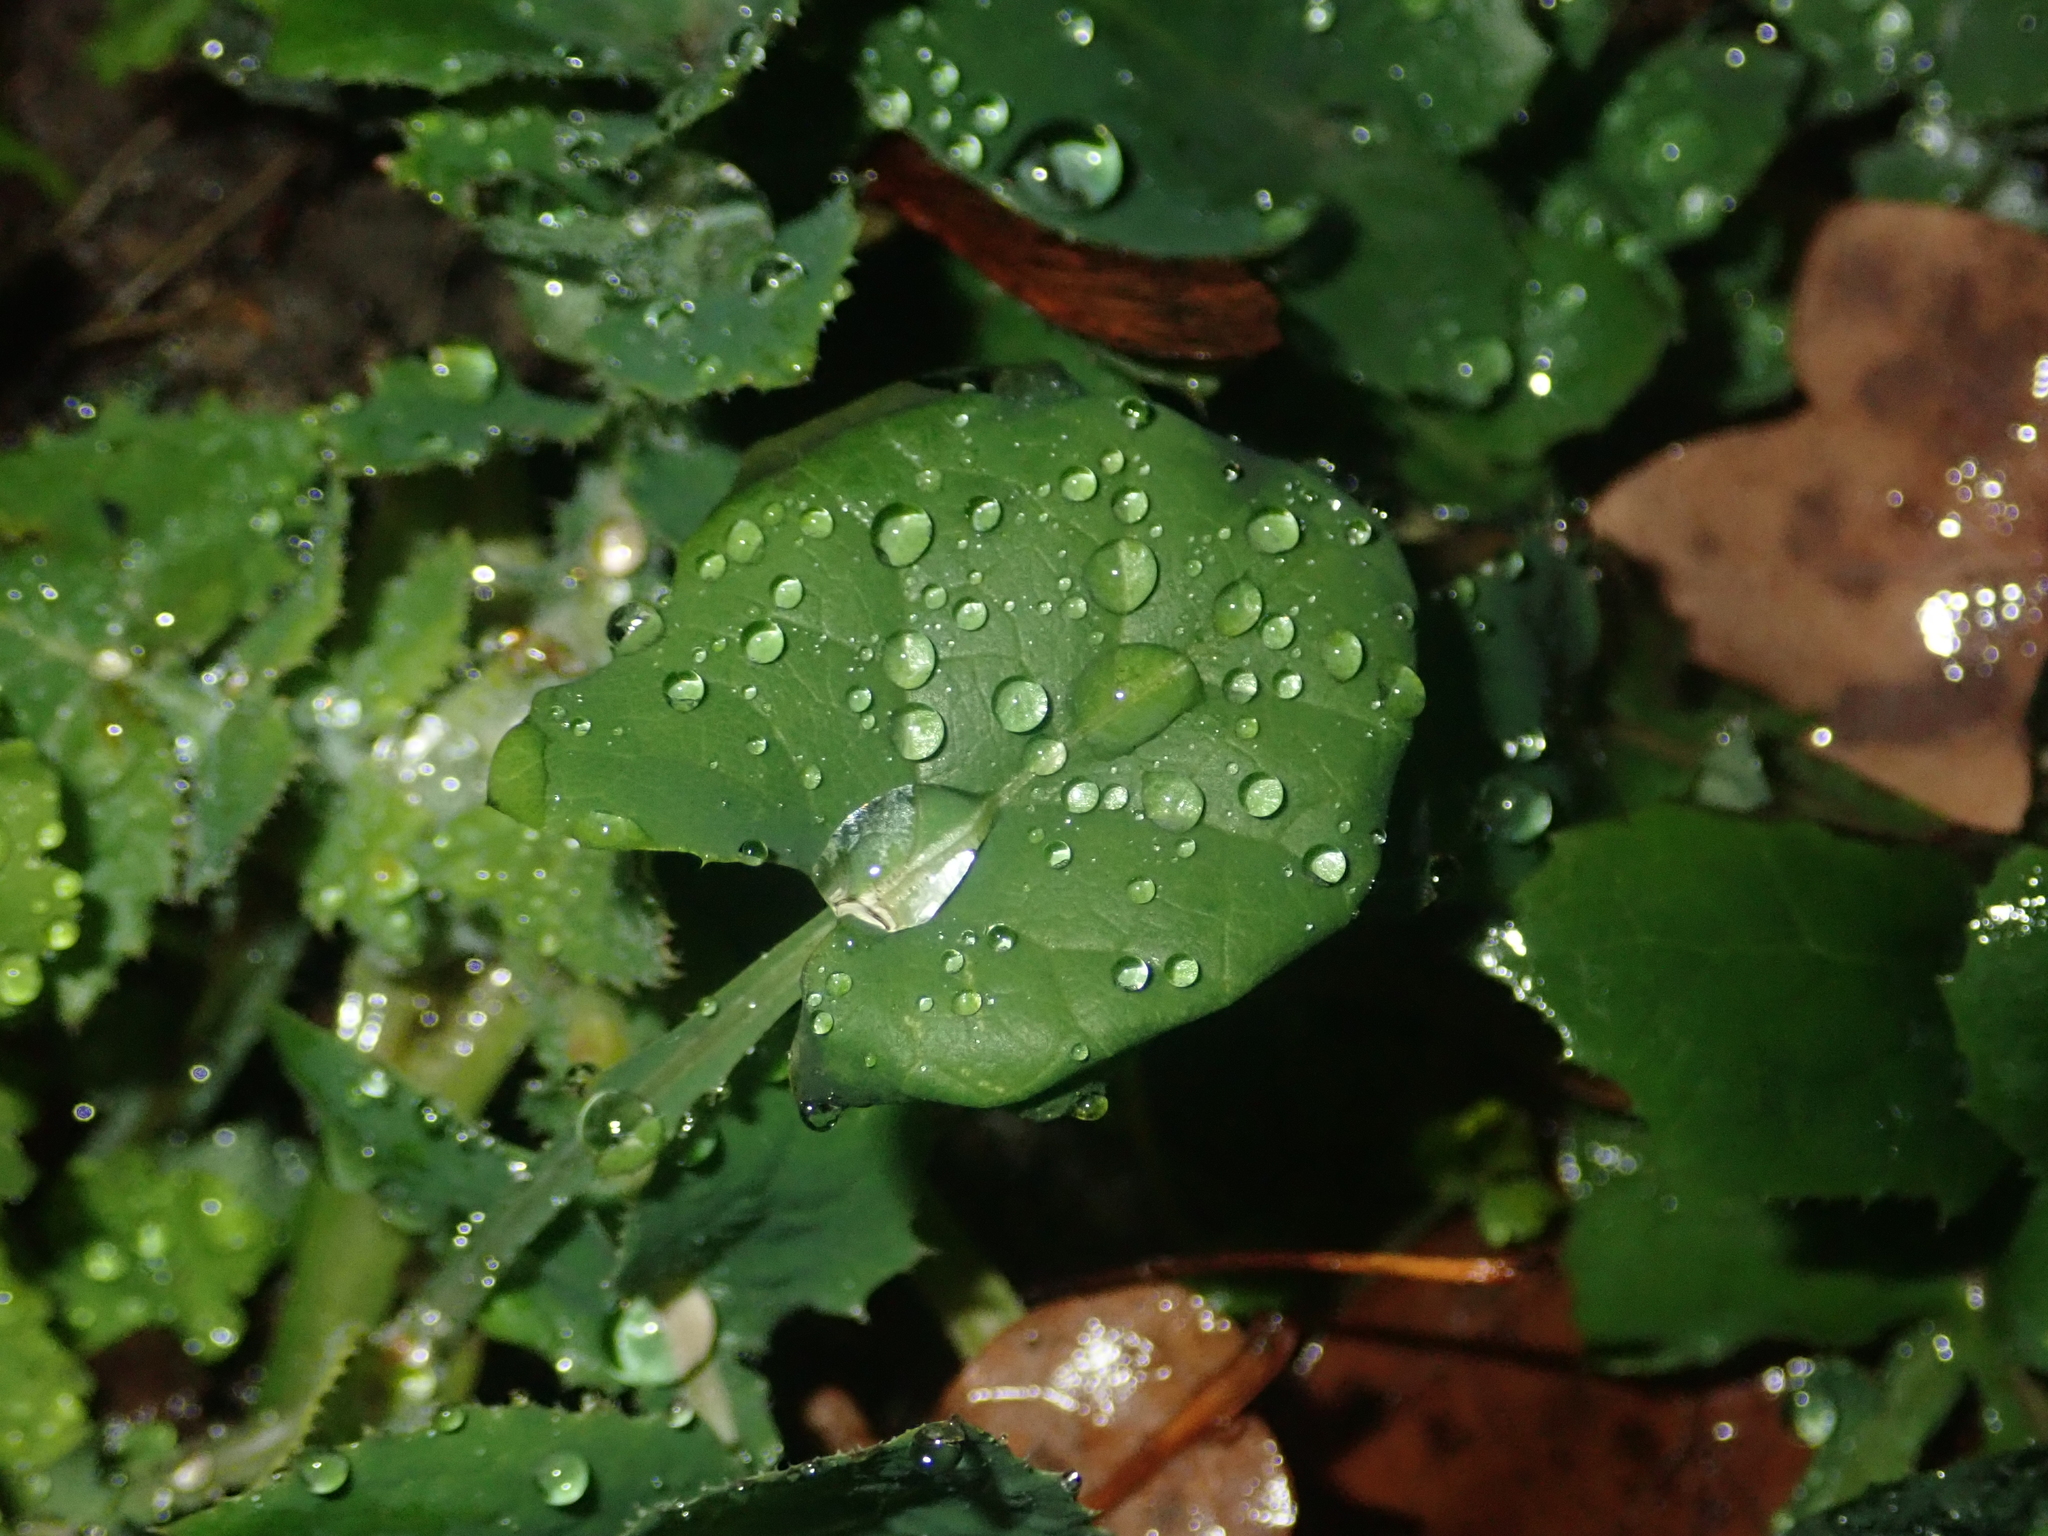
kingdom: Plantae
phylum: Tracheophyta
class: Magnoliopsida
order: Asterales
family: Asteraceae
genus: Sonchus
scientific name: Sonchus oleraceus
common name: Common sowthistle
